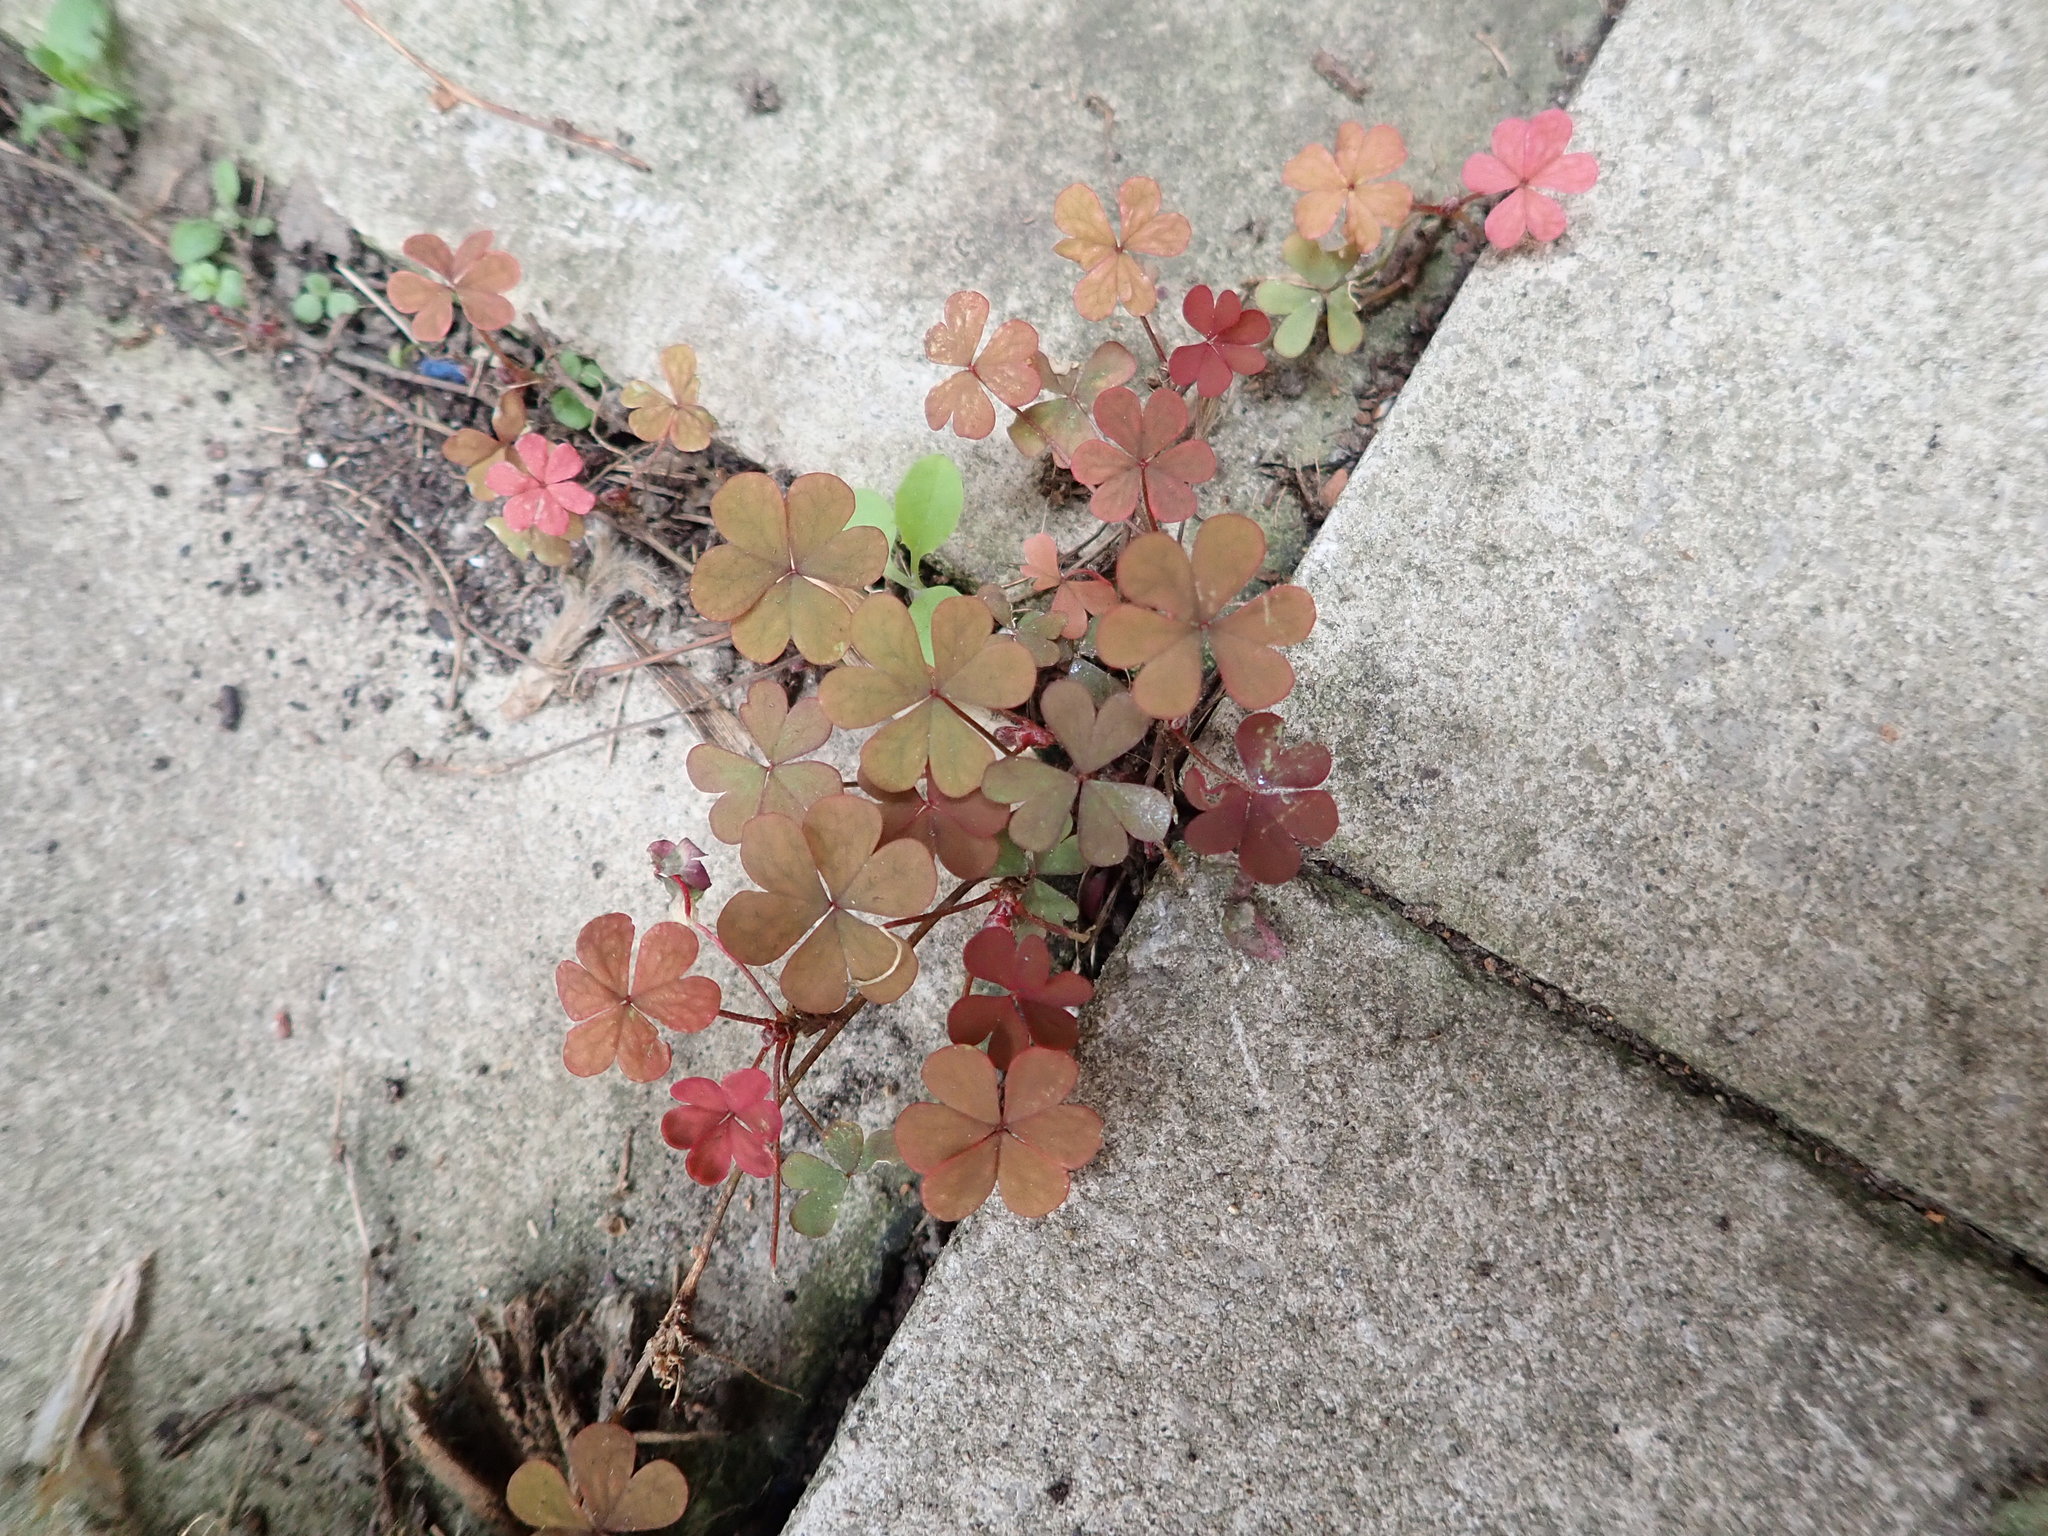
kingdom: Plantae
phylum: Tracheophyta
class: Magnoliopsida
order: Oxalidales
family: Oxalidaceae
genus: Oxalis
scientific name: Oxalis corniculata
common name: Procumbent yellow-sorrel
